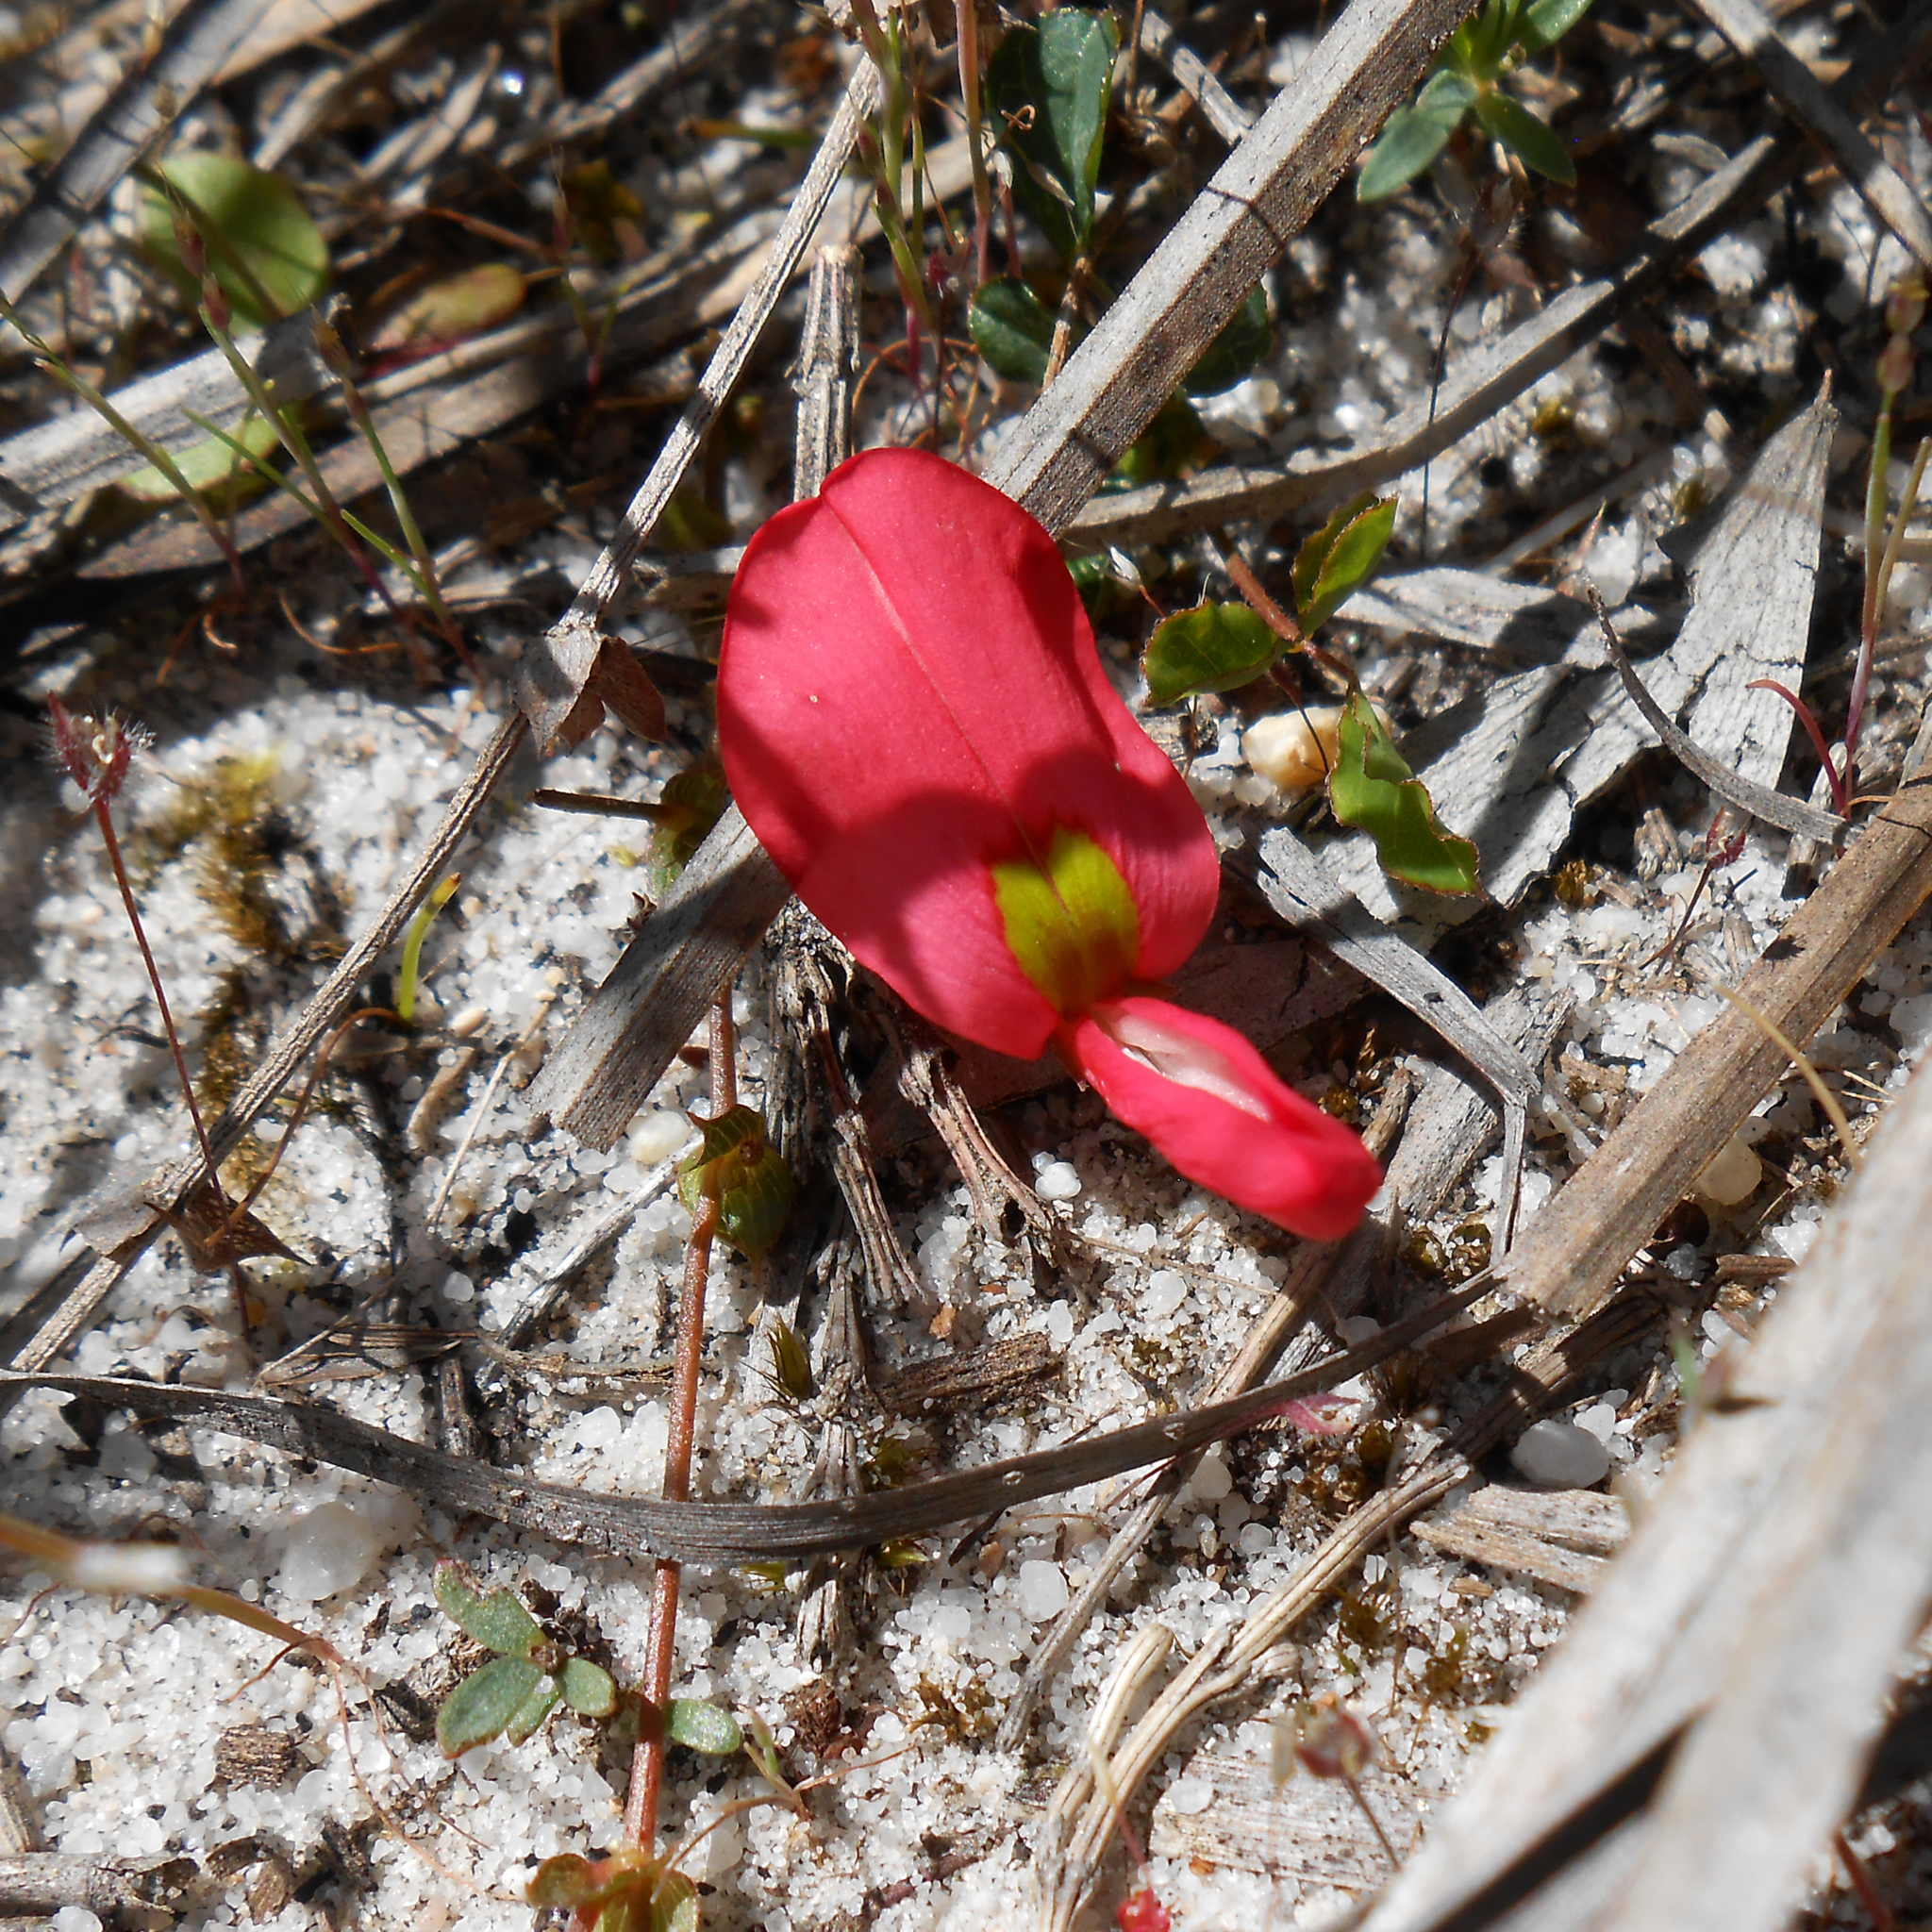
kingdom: Plantae
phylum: Tracheophyta
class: Magnoliopsida
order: Fabales
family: Fabaceae
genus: Kennedia
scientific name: Kennedia prostrata
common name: Running-postman
